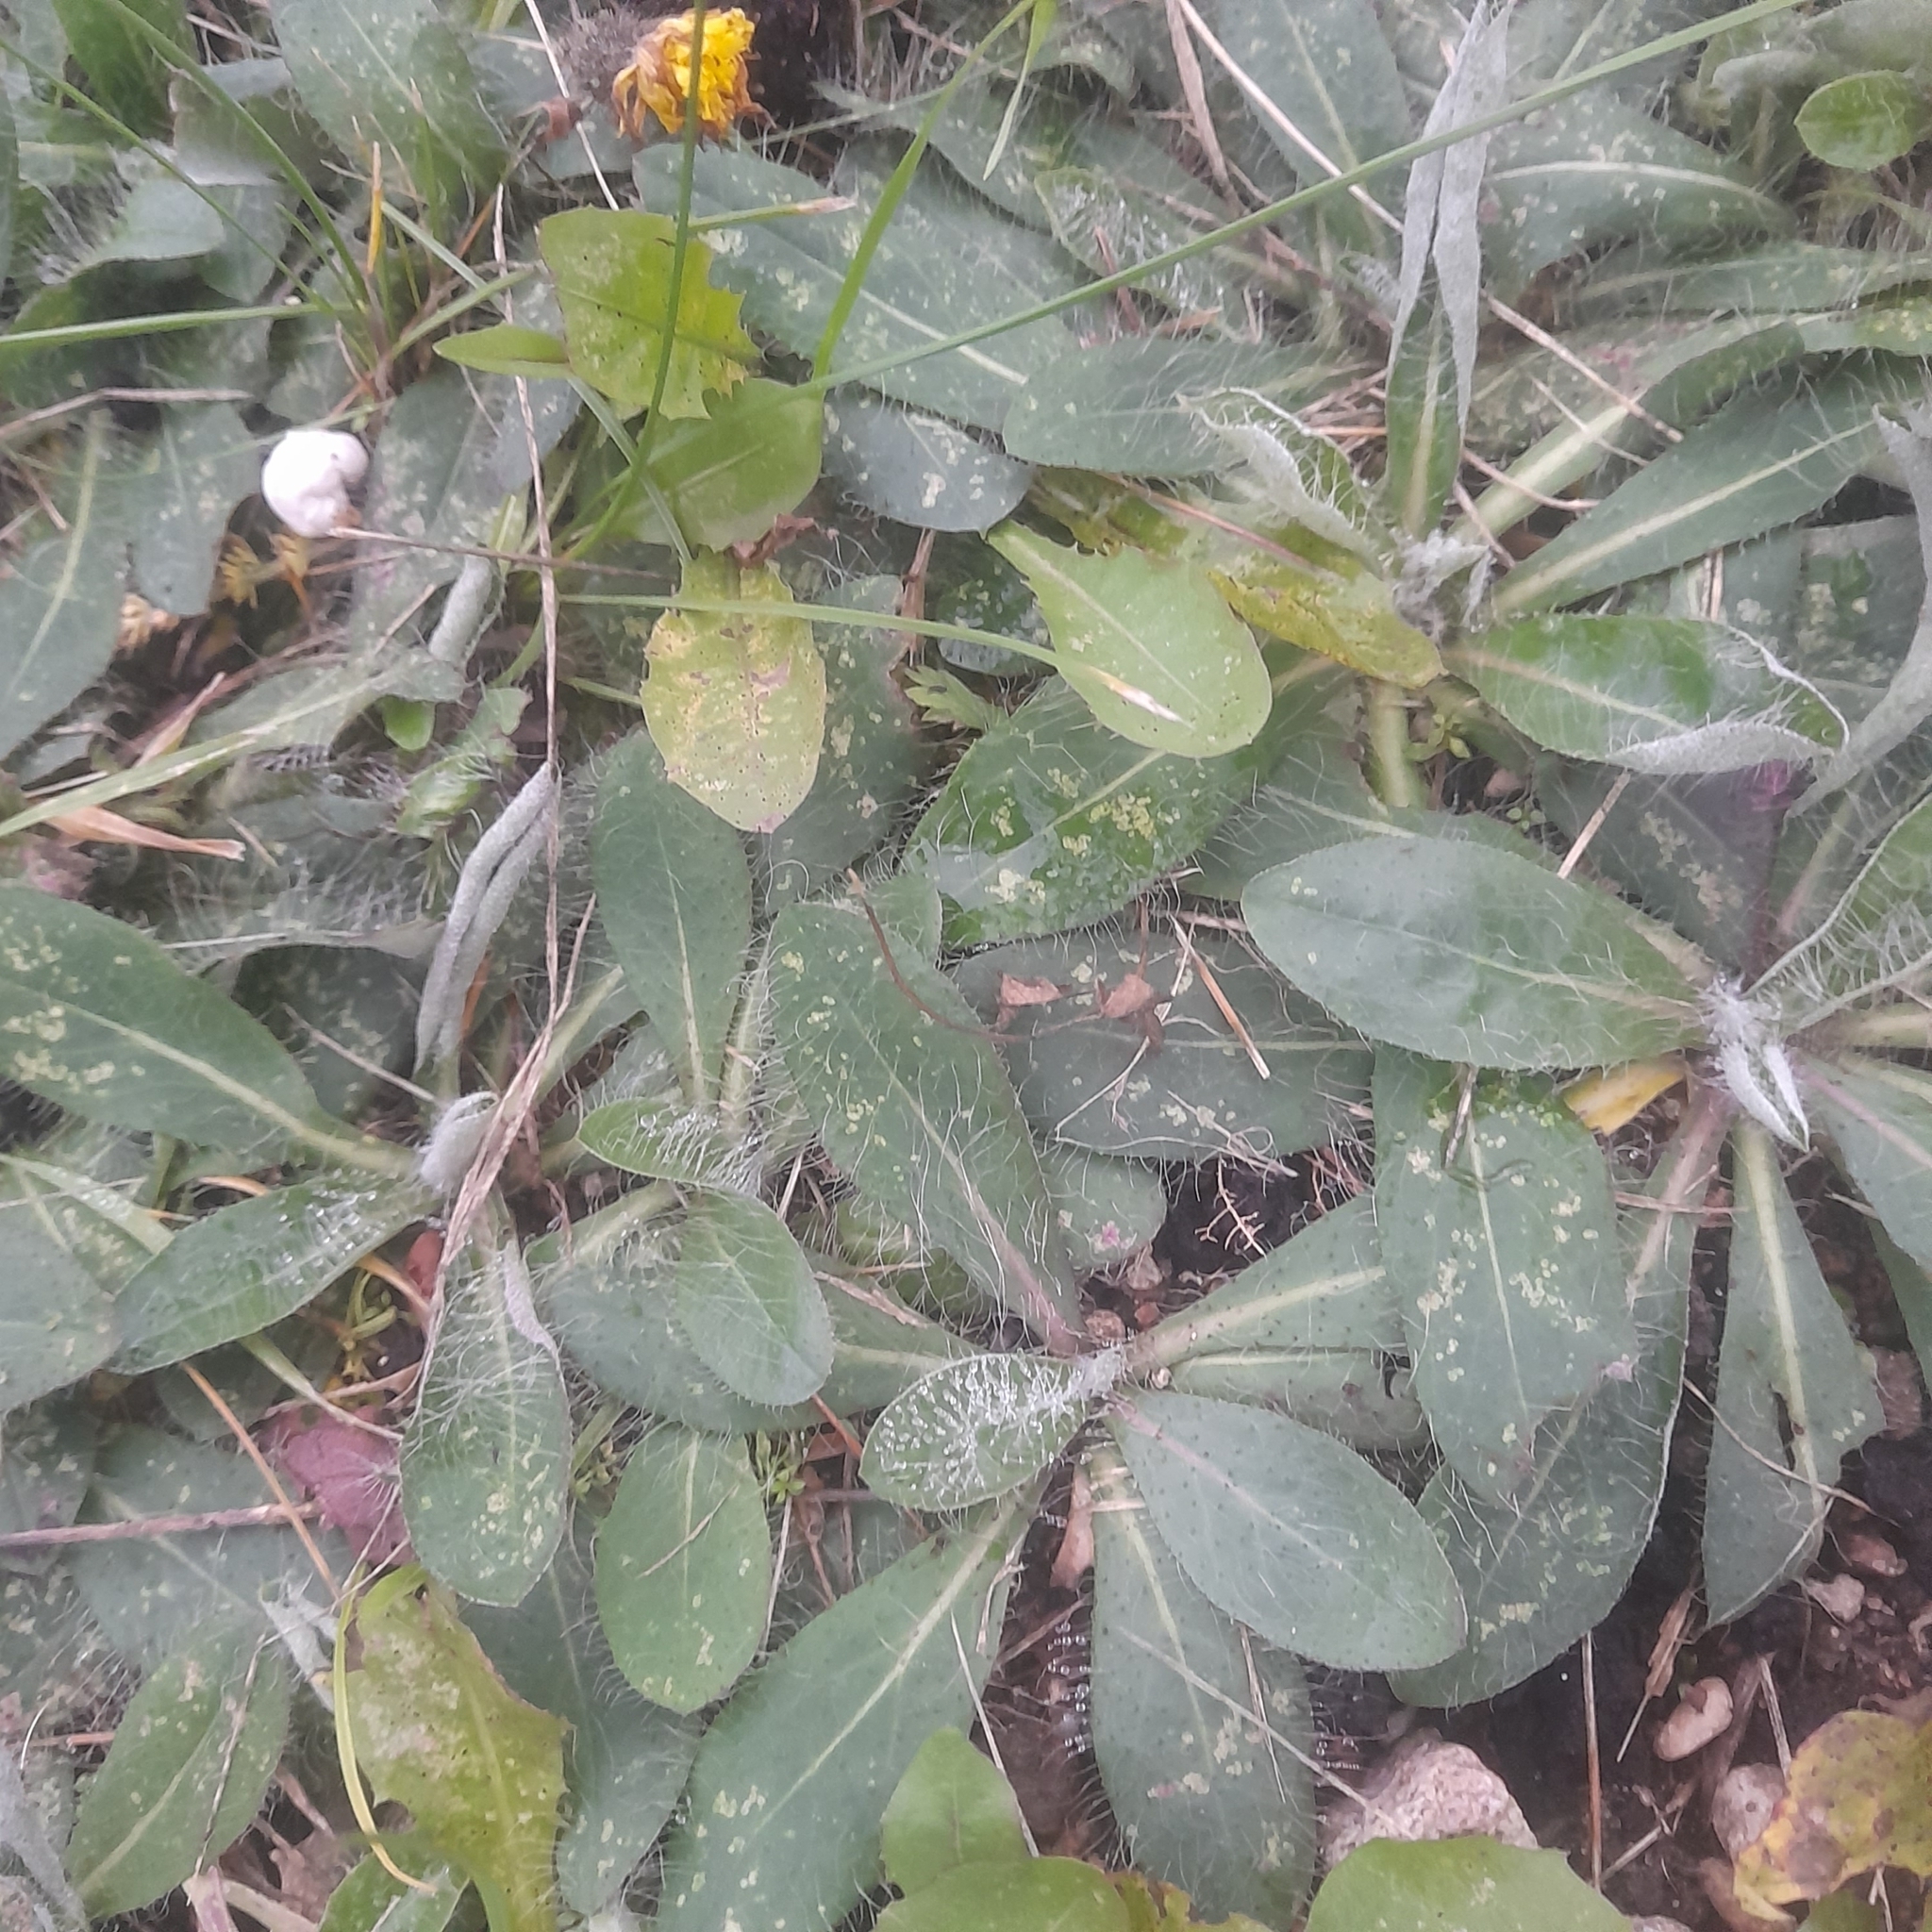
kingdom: Plantae
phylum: Tracheophyta
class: Magnoliopsida
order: Asterales
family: Asteraceae
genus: Pilosella
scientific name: Pilosella officinarum
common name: Mouse-ear hawkweed
